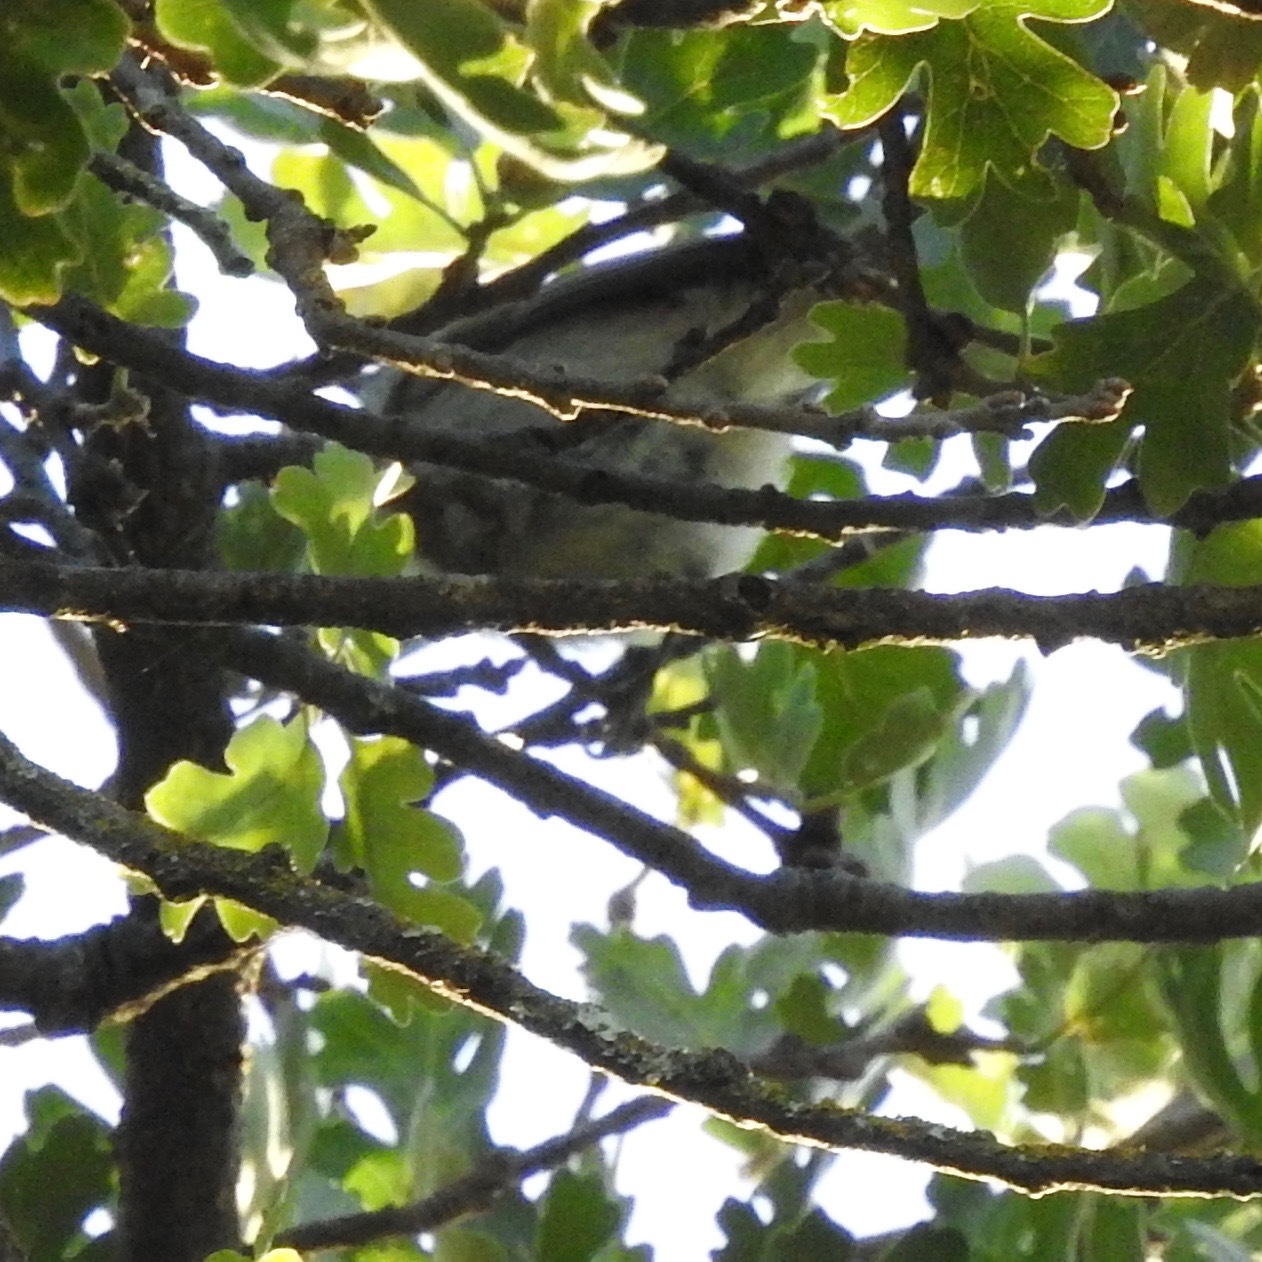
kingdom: Animalia
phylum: Chordata
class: Aves
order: Passeriformes
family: Paridae
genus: Baeolophus
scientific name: Baeolophus inornatus
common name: Oak titmouse
